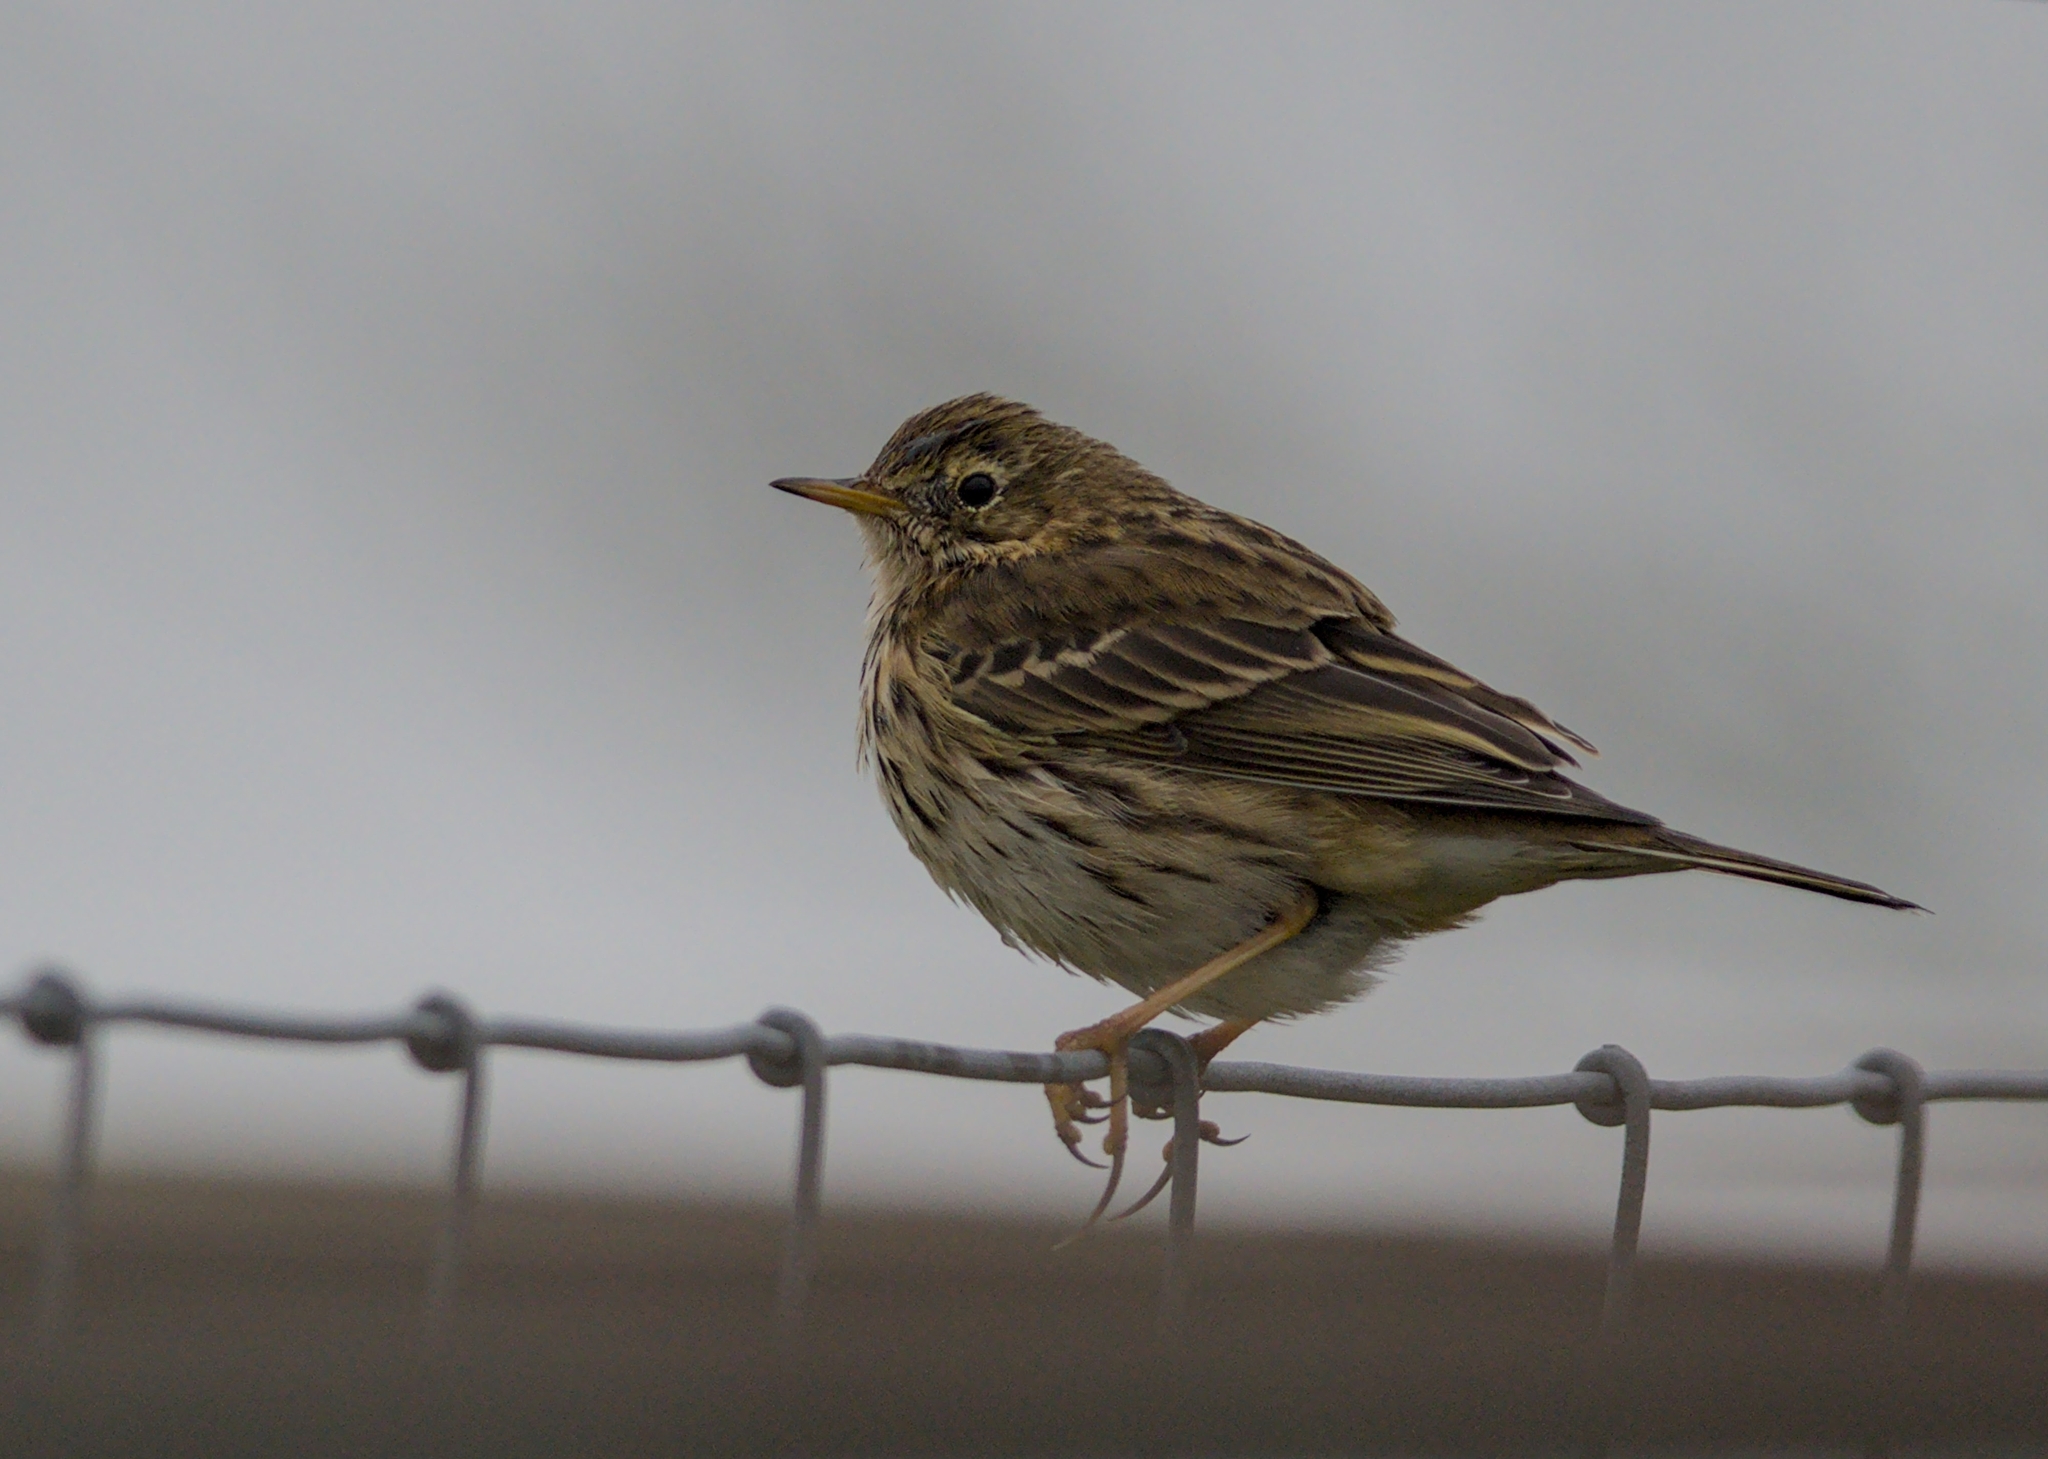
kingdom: Animalia
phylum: Chordata
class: Aves
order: Passeriformes
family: Motacillidae
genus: Anthus
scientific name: Anthus pratensis
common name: Meadow pipit
